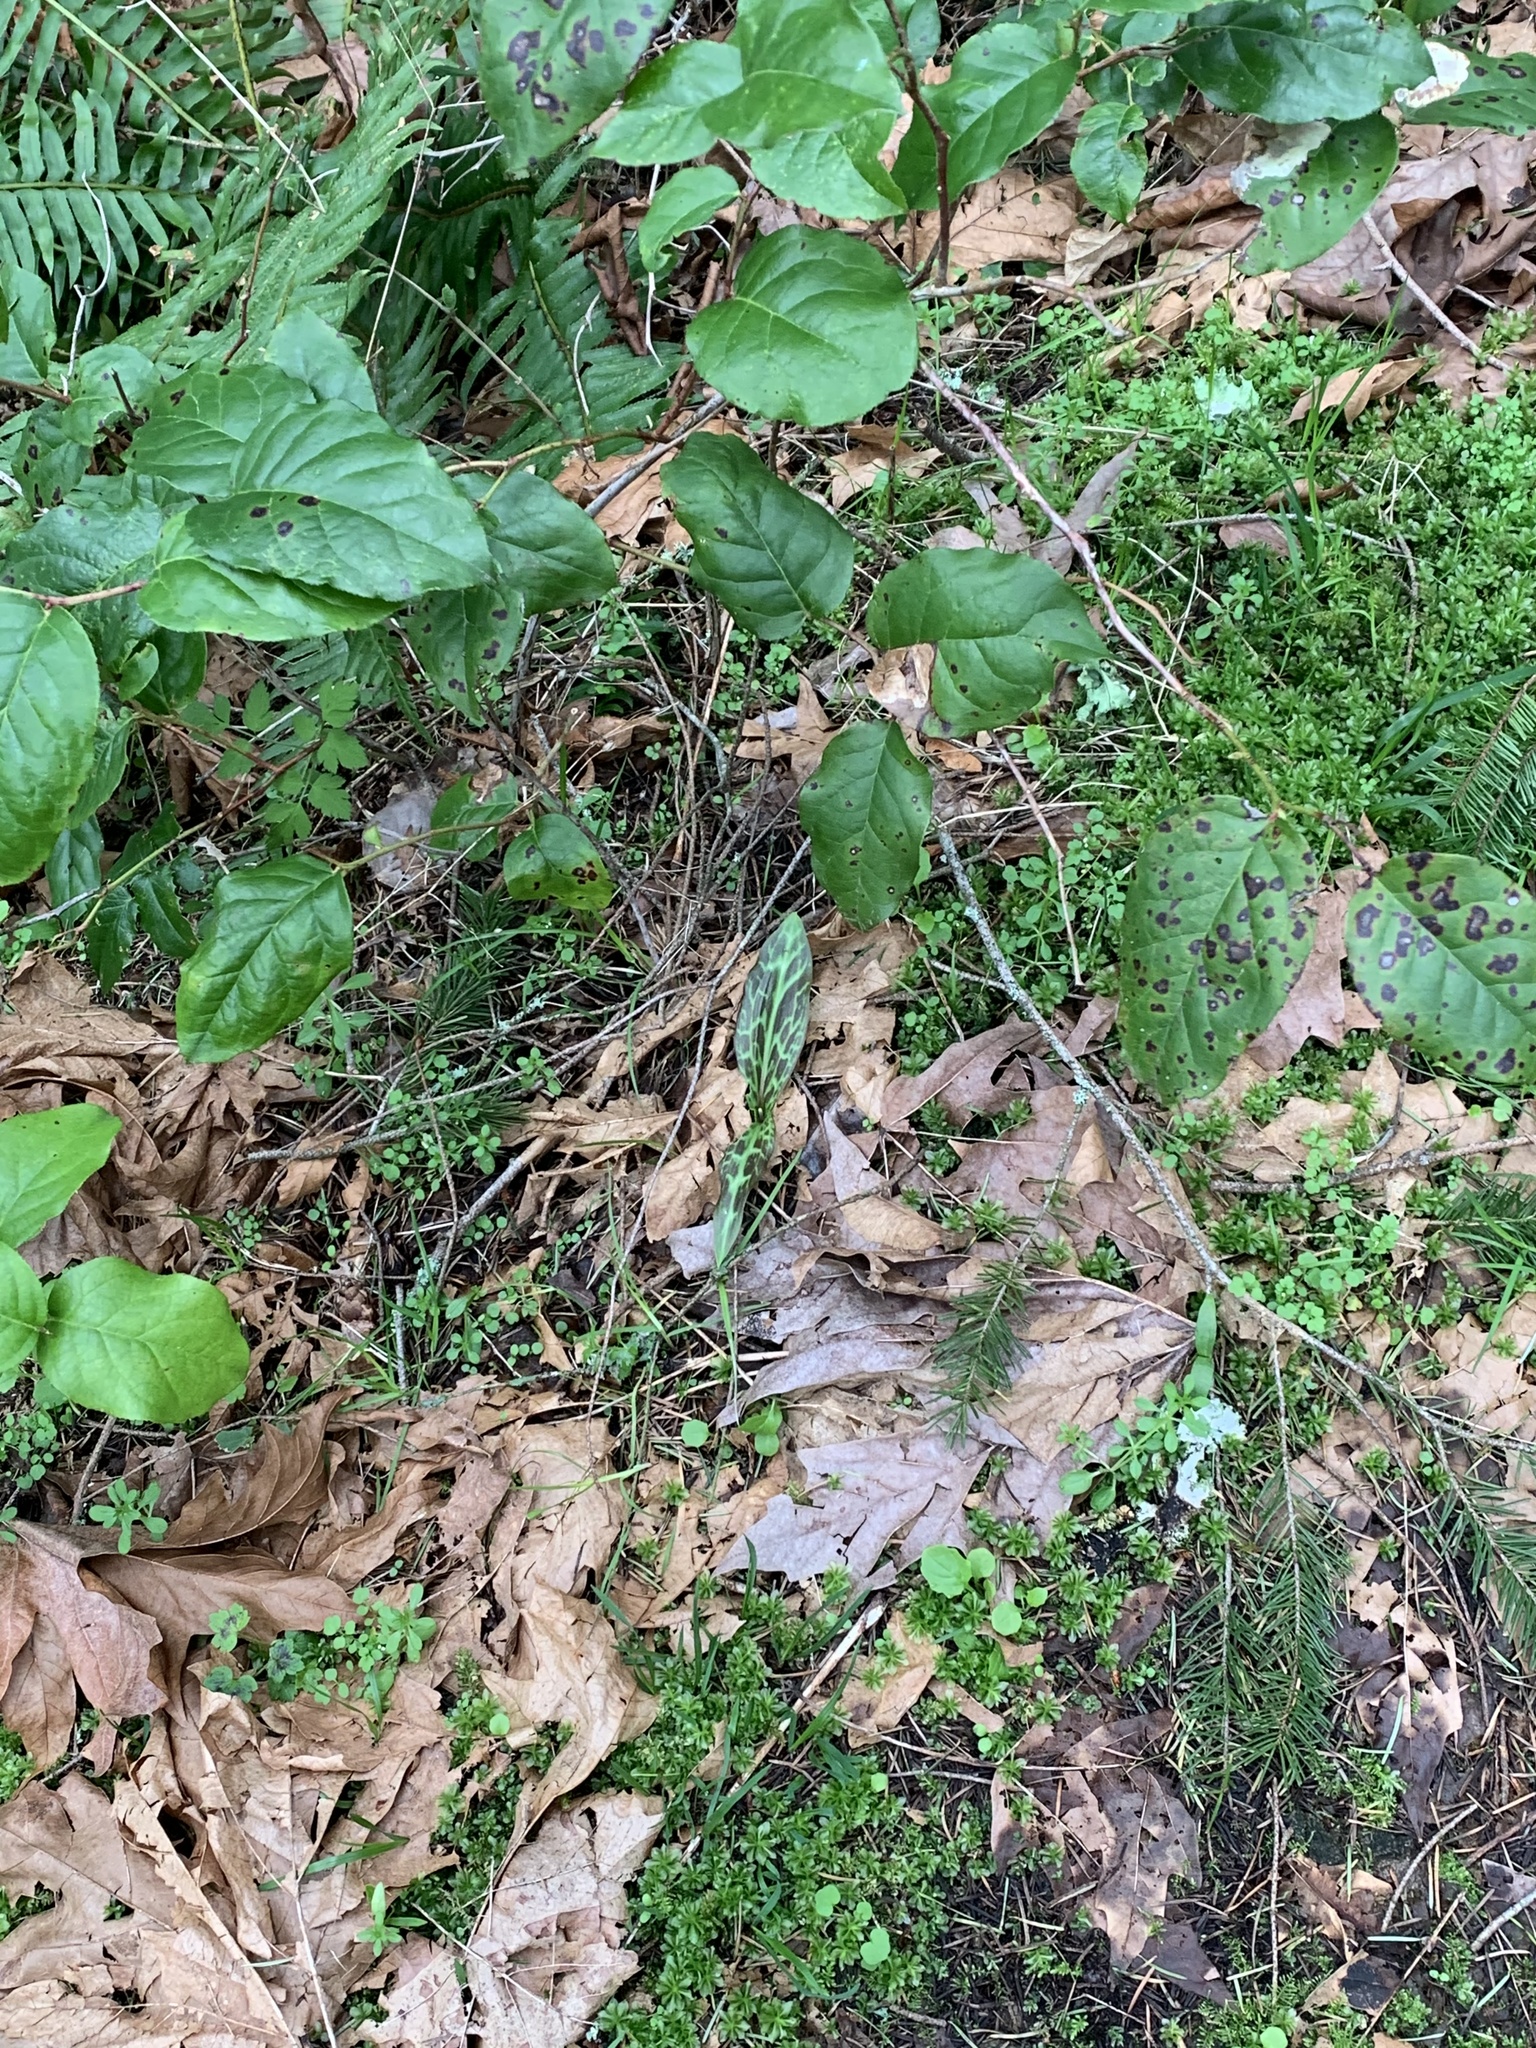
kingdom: Plantae
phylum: Tracheophyta
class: Liliopsida
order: Liliales
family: Liliaceae
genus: Erythronium
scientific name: Erythronium oregonum
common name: Giant adder's-tongue
